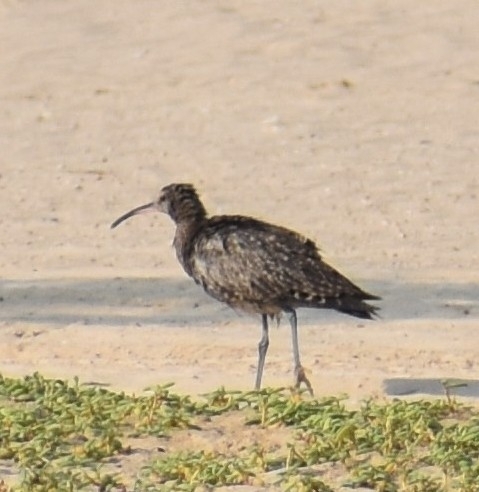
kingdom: Animalia
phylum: Chordata
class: Aves
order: Charadriiformes
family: Scolopacidae
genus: Numenius
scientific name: Numenius phaeopus
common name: Whimbrel
